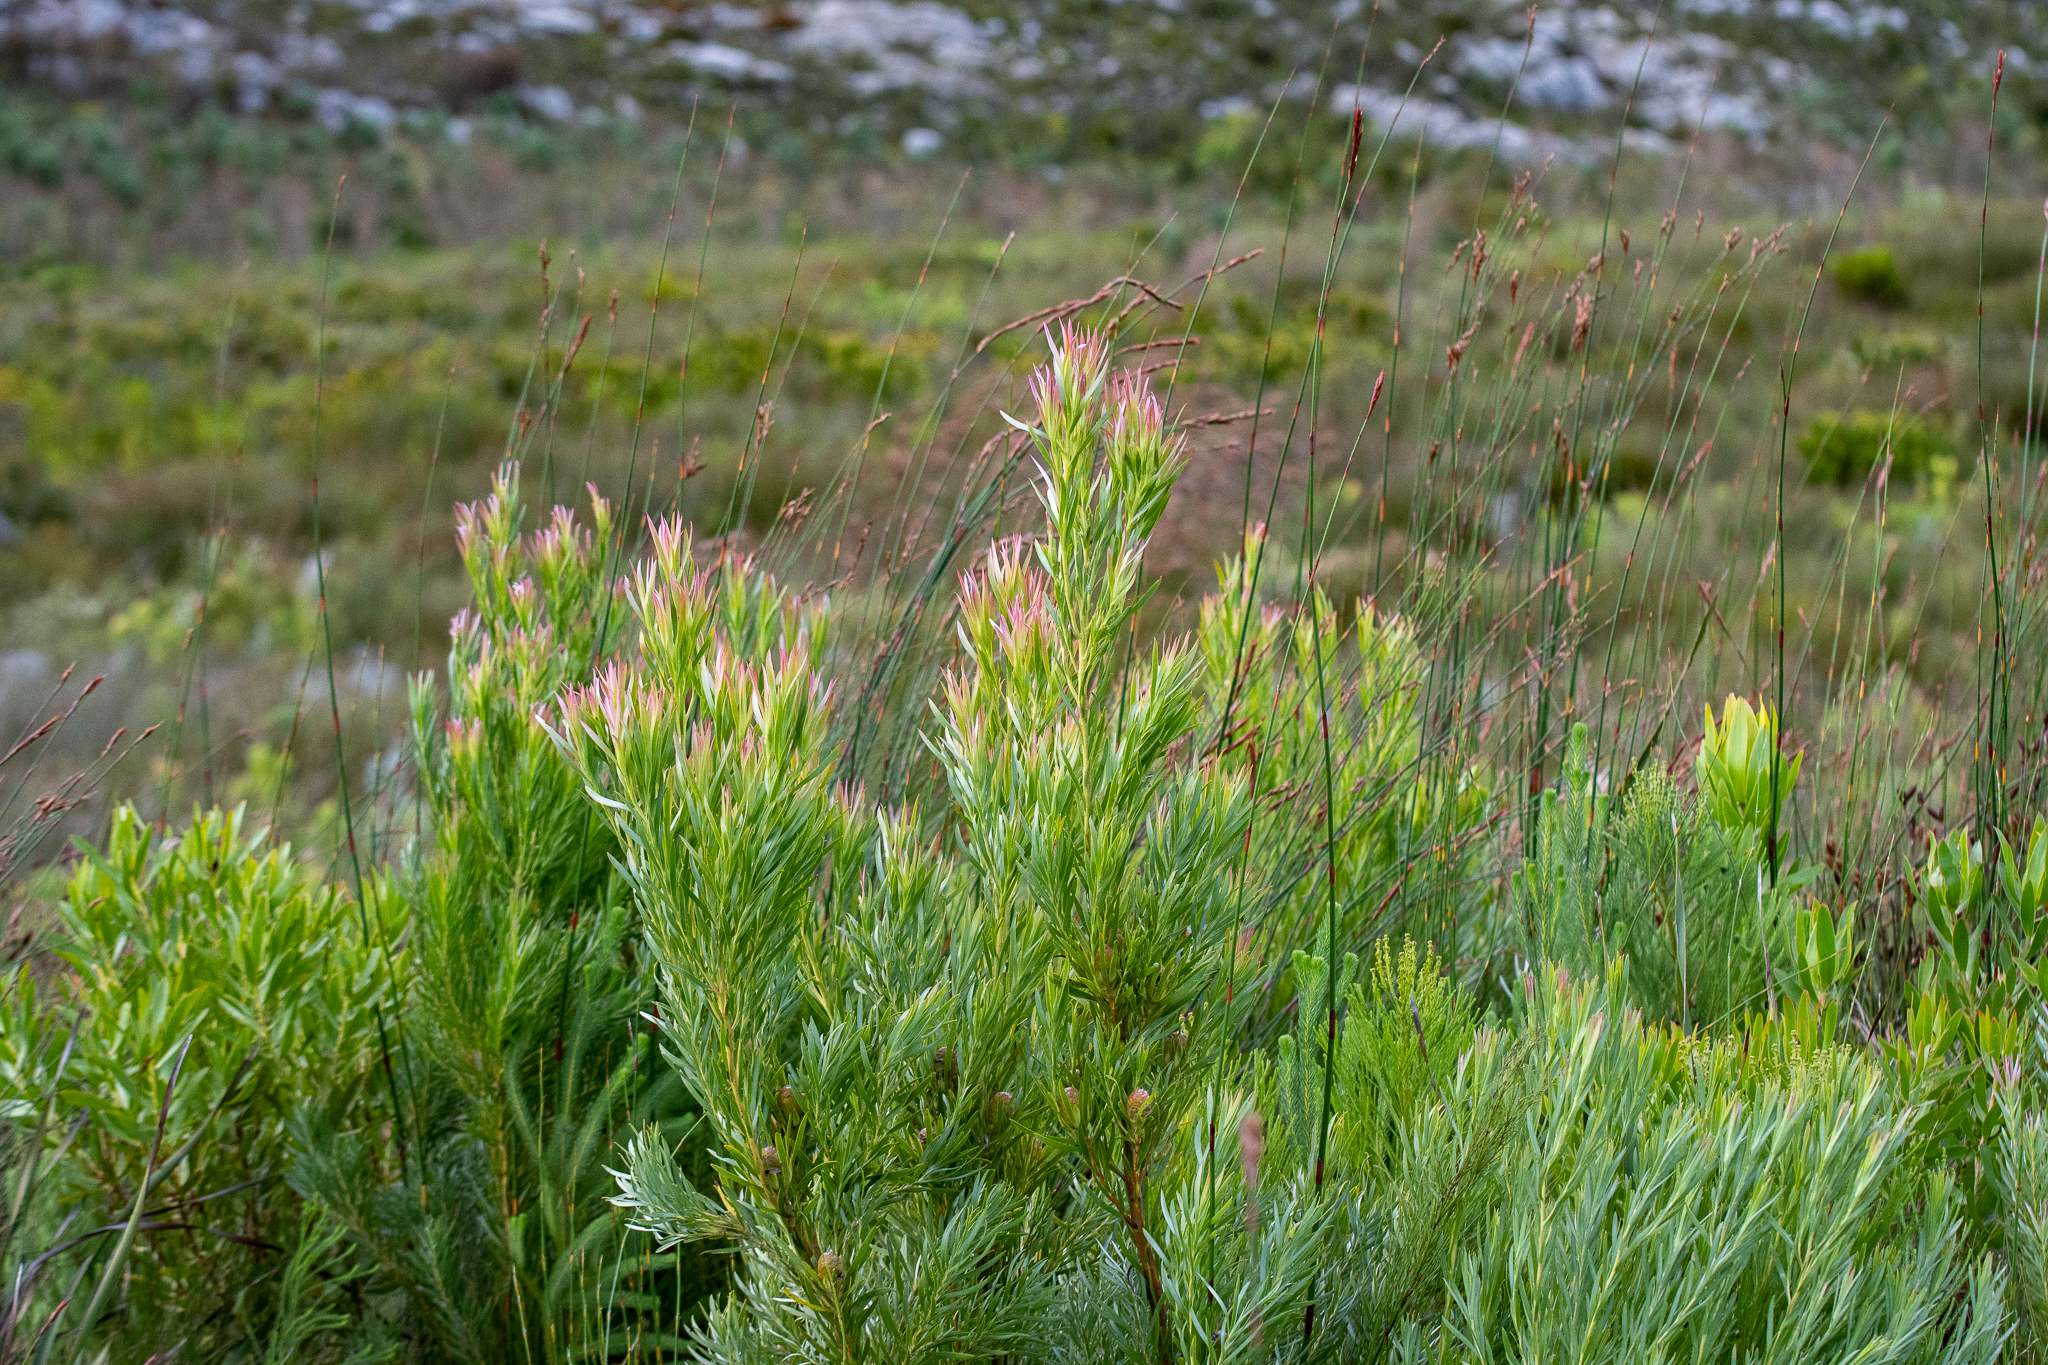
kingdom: Plantae
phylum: Tracheophyta
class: Magnoliopsida
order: Proteales
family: Proteaceae
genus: Leucadendron
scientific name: Leucadendron xanthoconus
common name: Sickle-leaf conebush
